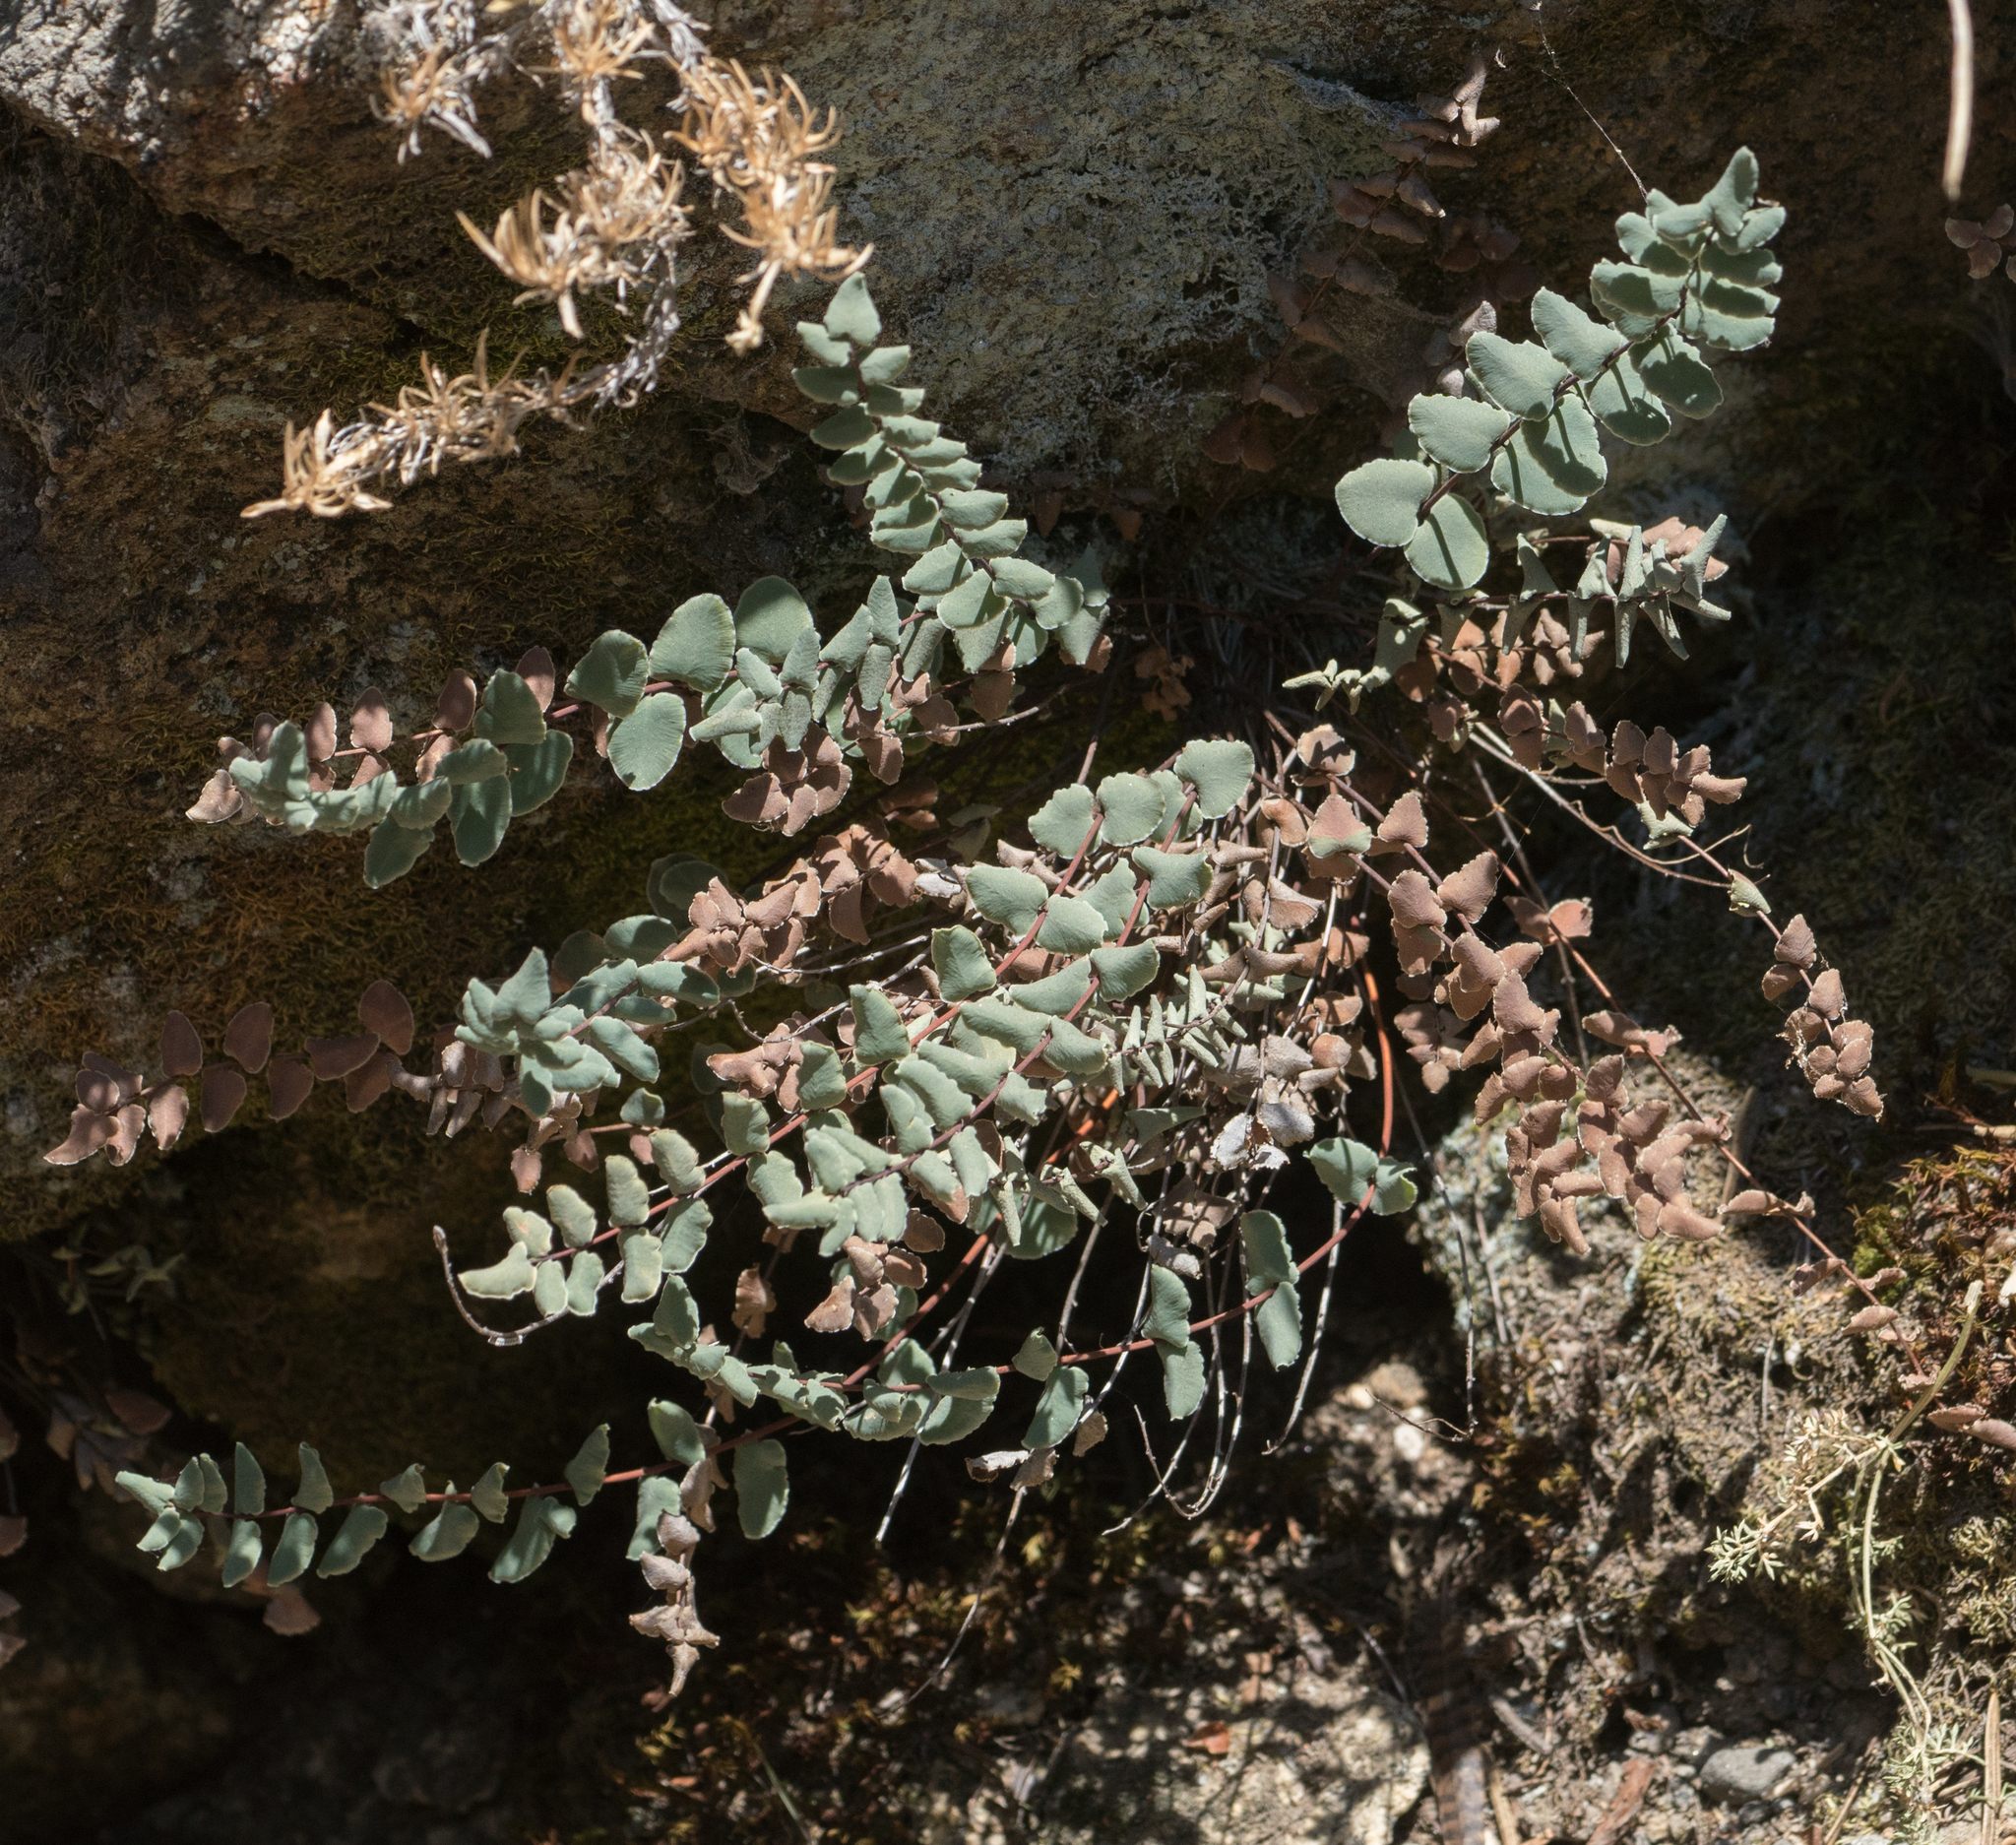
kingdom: Plantae
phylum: Tracheophyta
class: Polypodiopsida
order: Polypodiales
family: Pteridaceae
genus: Pellaea
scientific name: Pellaea bridgesii
